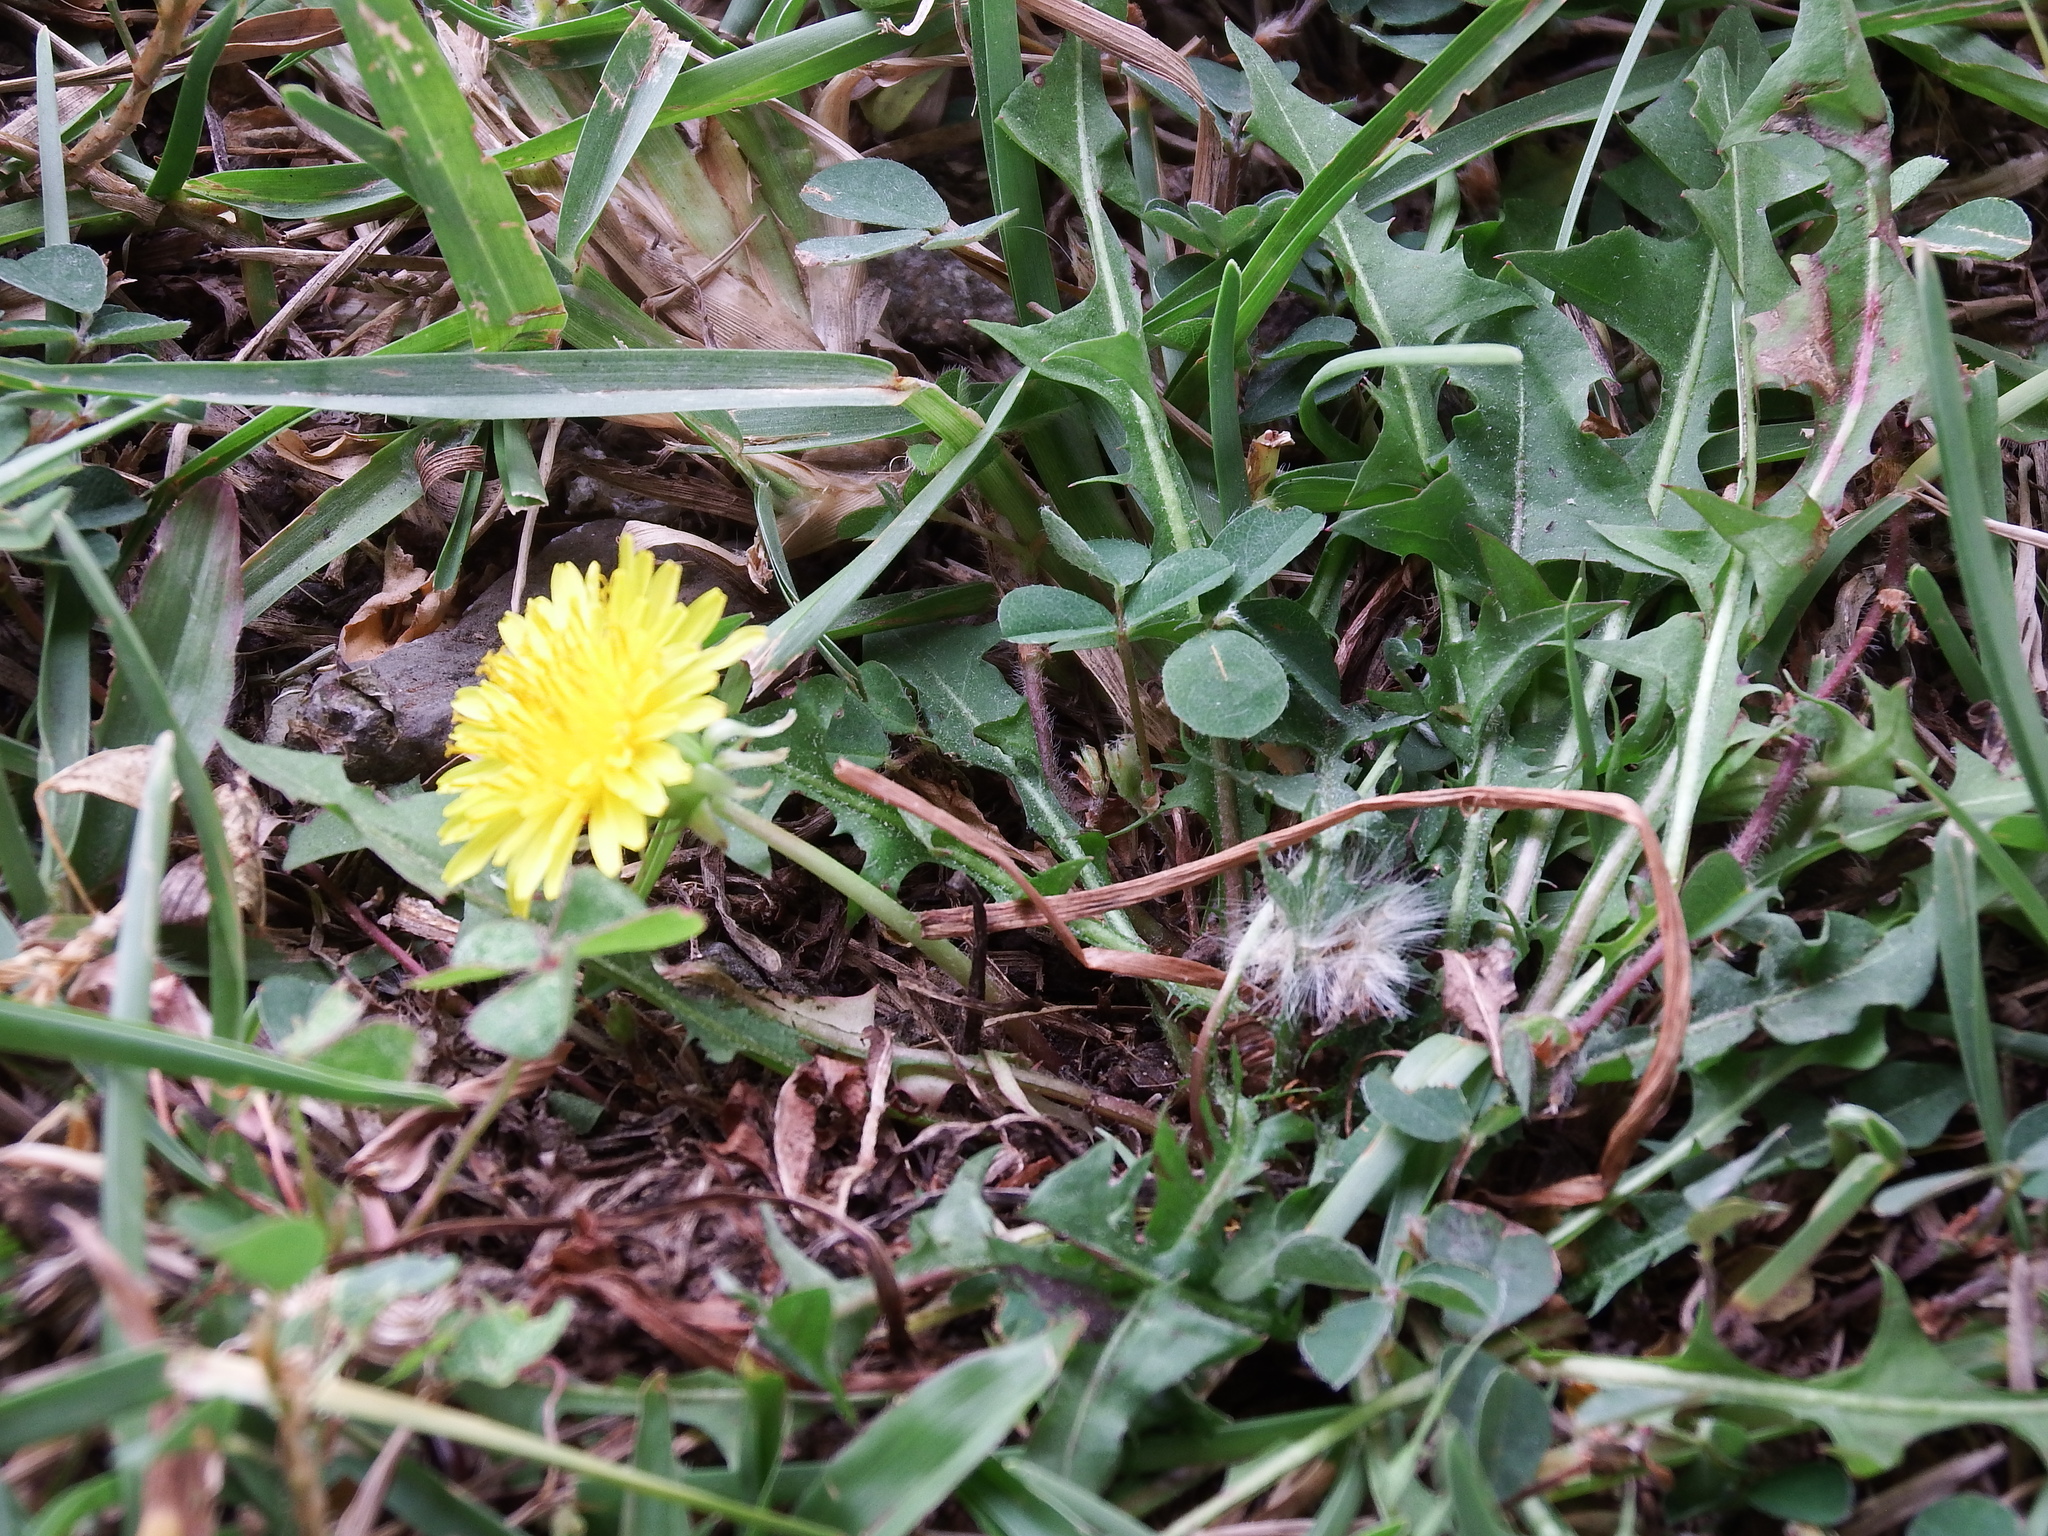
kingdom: Plantae
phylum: Tracheophyta
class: Magnoliopsida
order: Asterales
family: Asteraceae
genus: Taraxacum
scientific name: Taraxacum officinale
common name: Common dandelion
